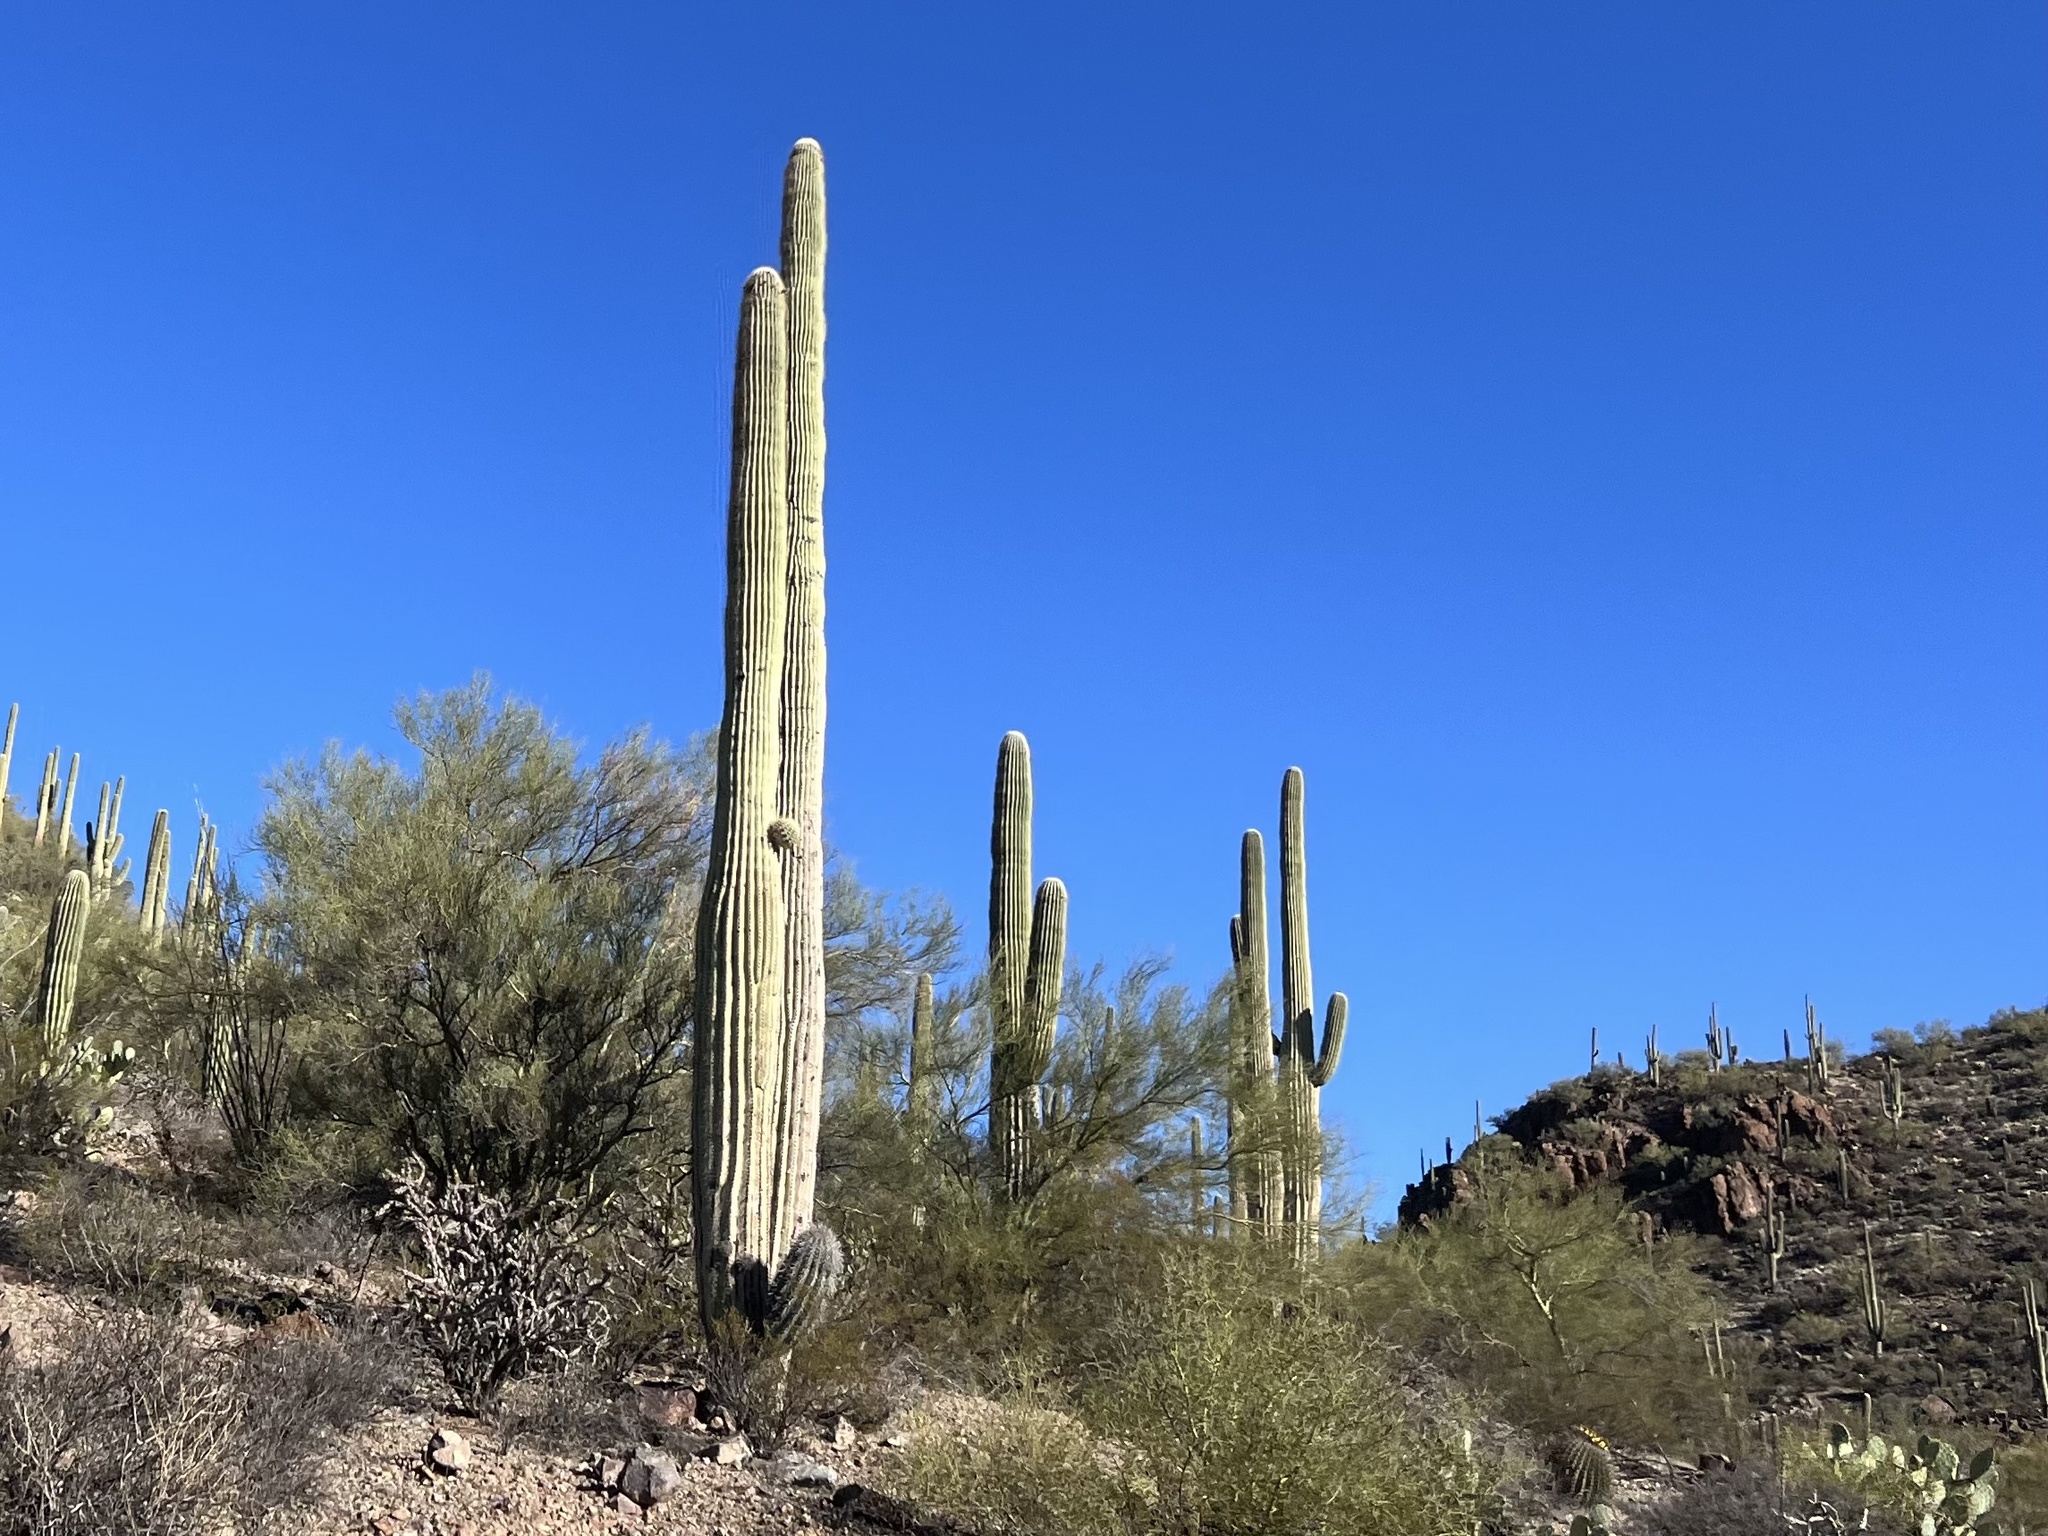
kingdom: Plantae
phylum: Tracheophyta
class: Magnoliopsida
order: Caryophyllales
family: Cactaceae
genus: Carnegiea
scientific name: Carnegiea gigantea
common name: Saguaro
